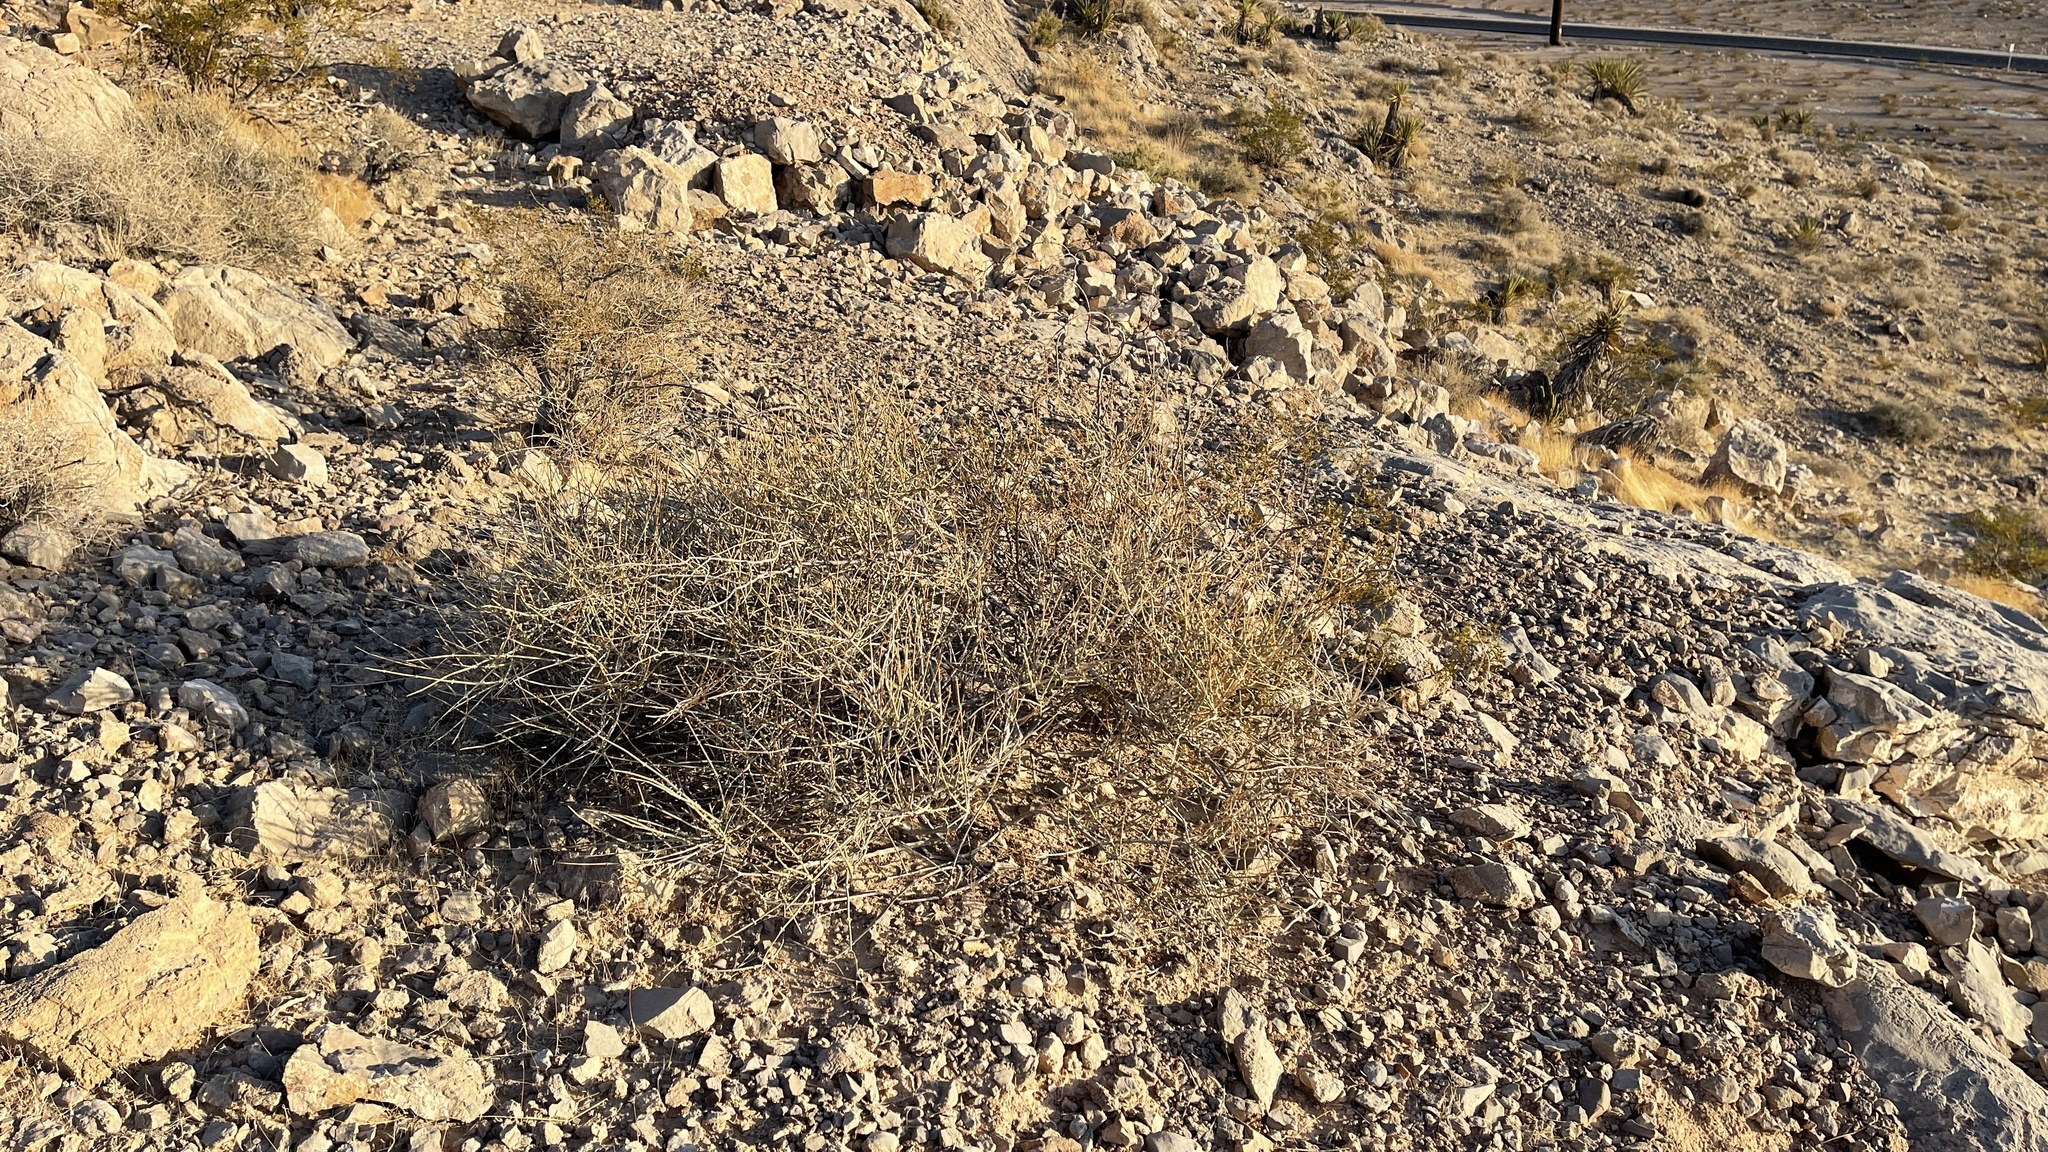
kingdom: Plantae
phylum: Tracheophyta
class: Gnetopsida
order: Ephedrales
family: Ephedraceae
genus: Ephedra
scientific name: Ephedra nevadensis
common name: Gray ephedra
